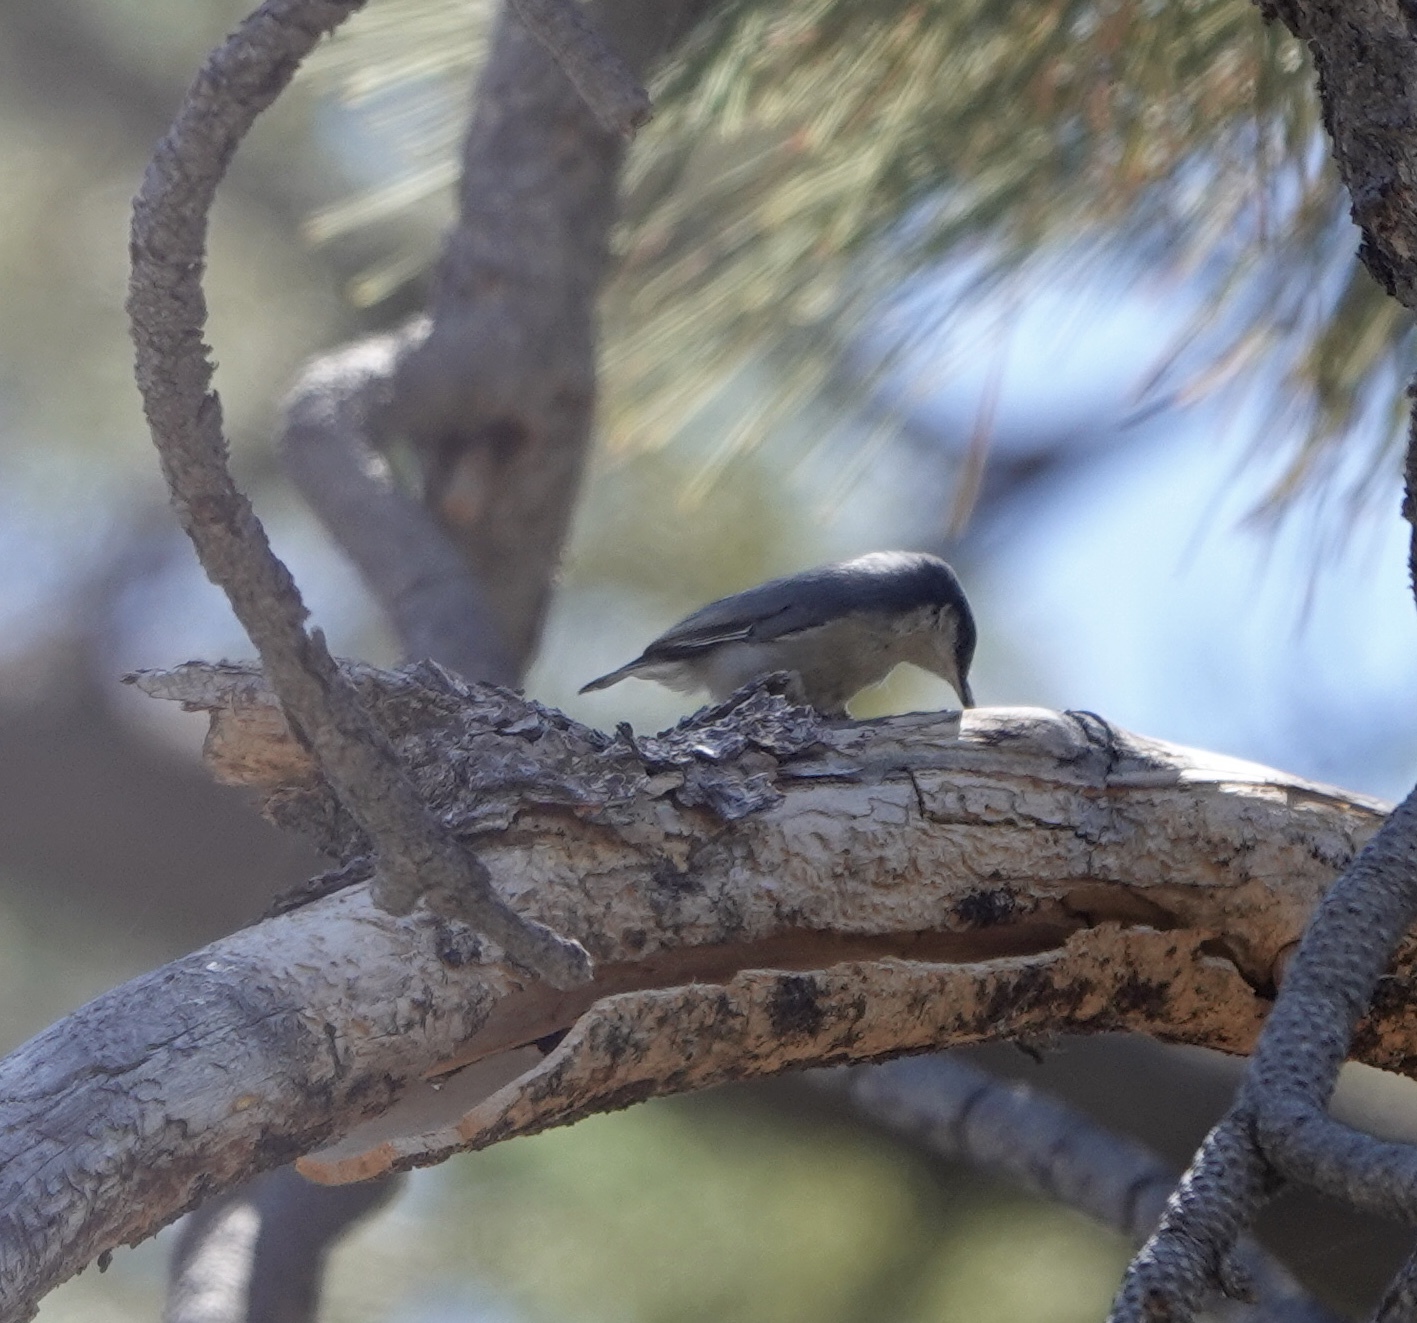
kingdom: Animalia
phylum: Chordata
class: Aves
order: Passeriformes
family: Sittidae
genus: Sitta
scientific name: Sitta pygmaea
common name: Pygmy nuthatch
